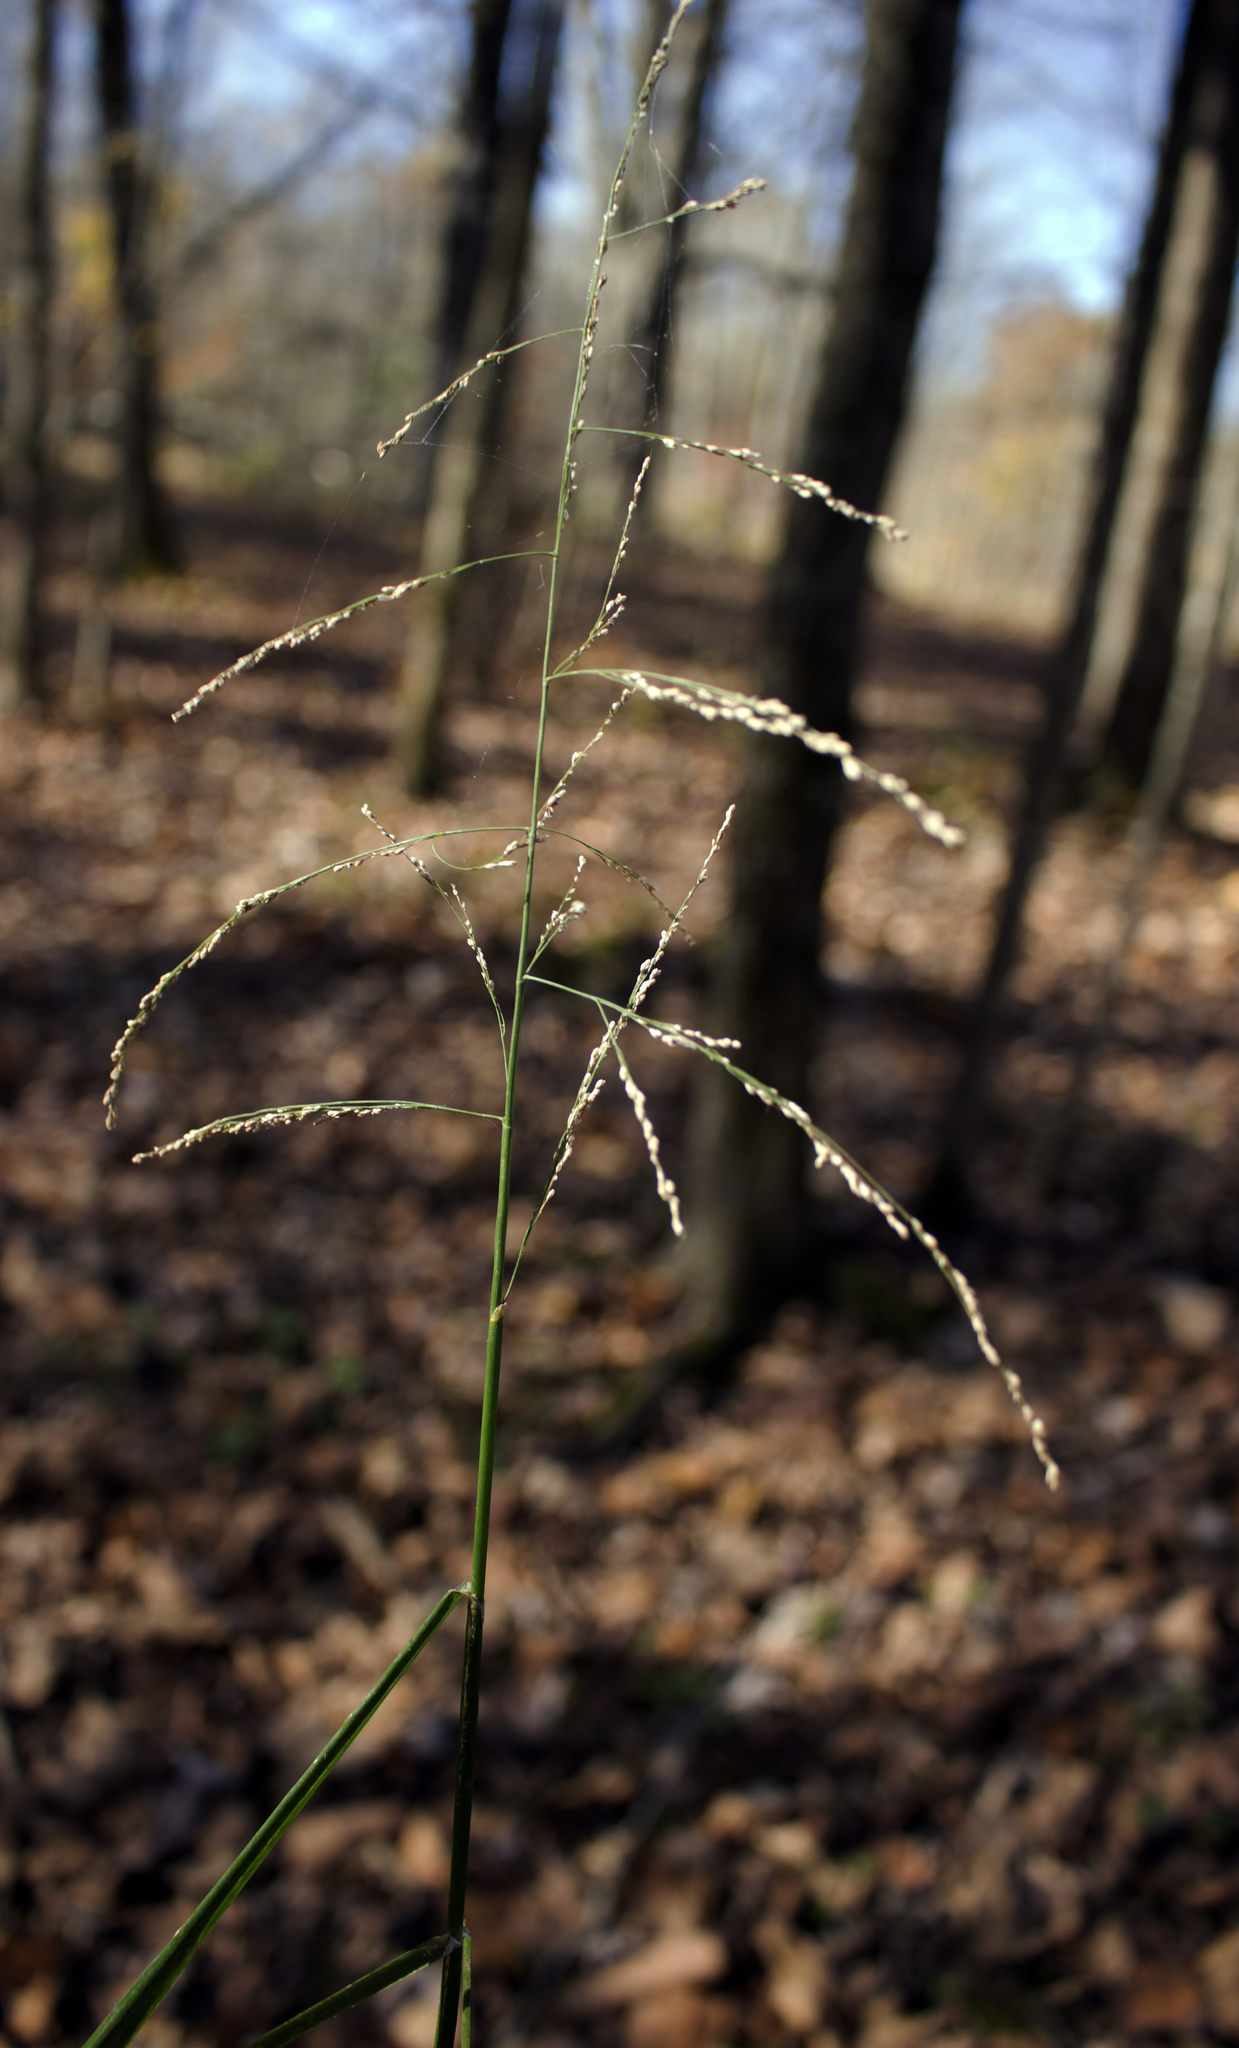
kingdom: Plantae
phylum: Tracheophyta
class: Liliopsida
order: Poales
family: Poaceae
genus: Glyceria
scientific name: Glyceria striata
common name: Fowl manna grass
